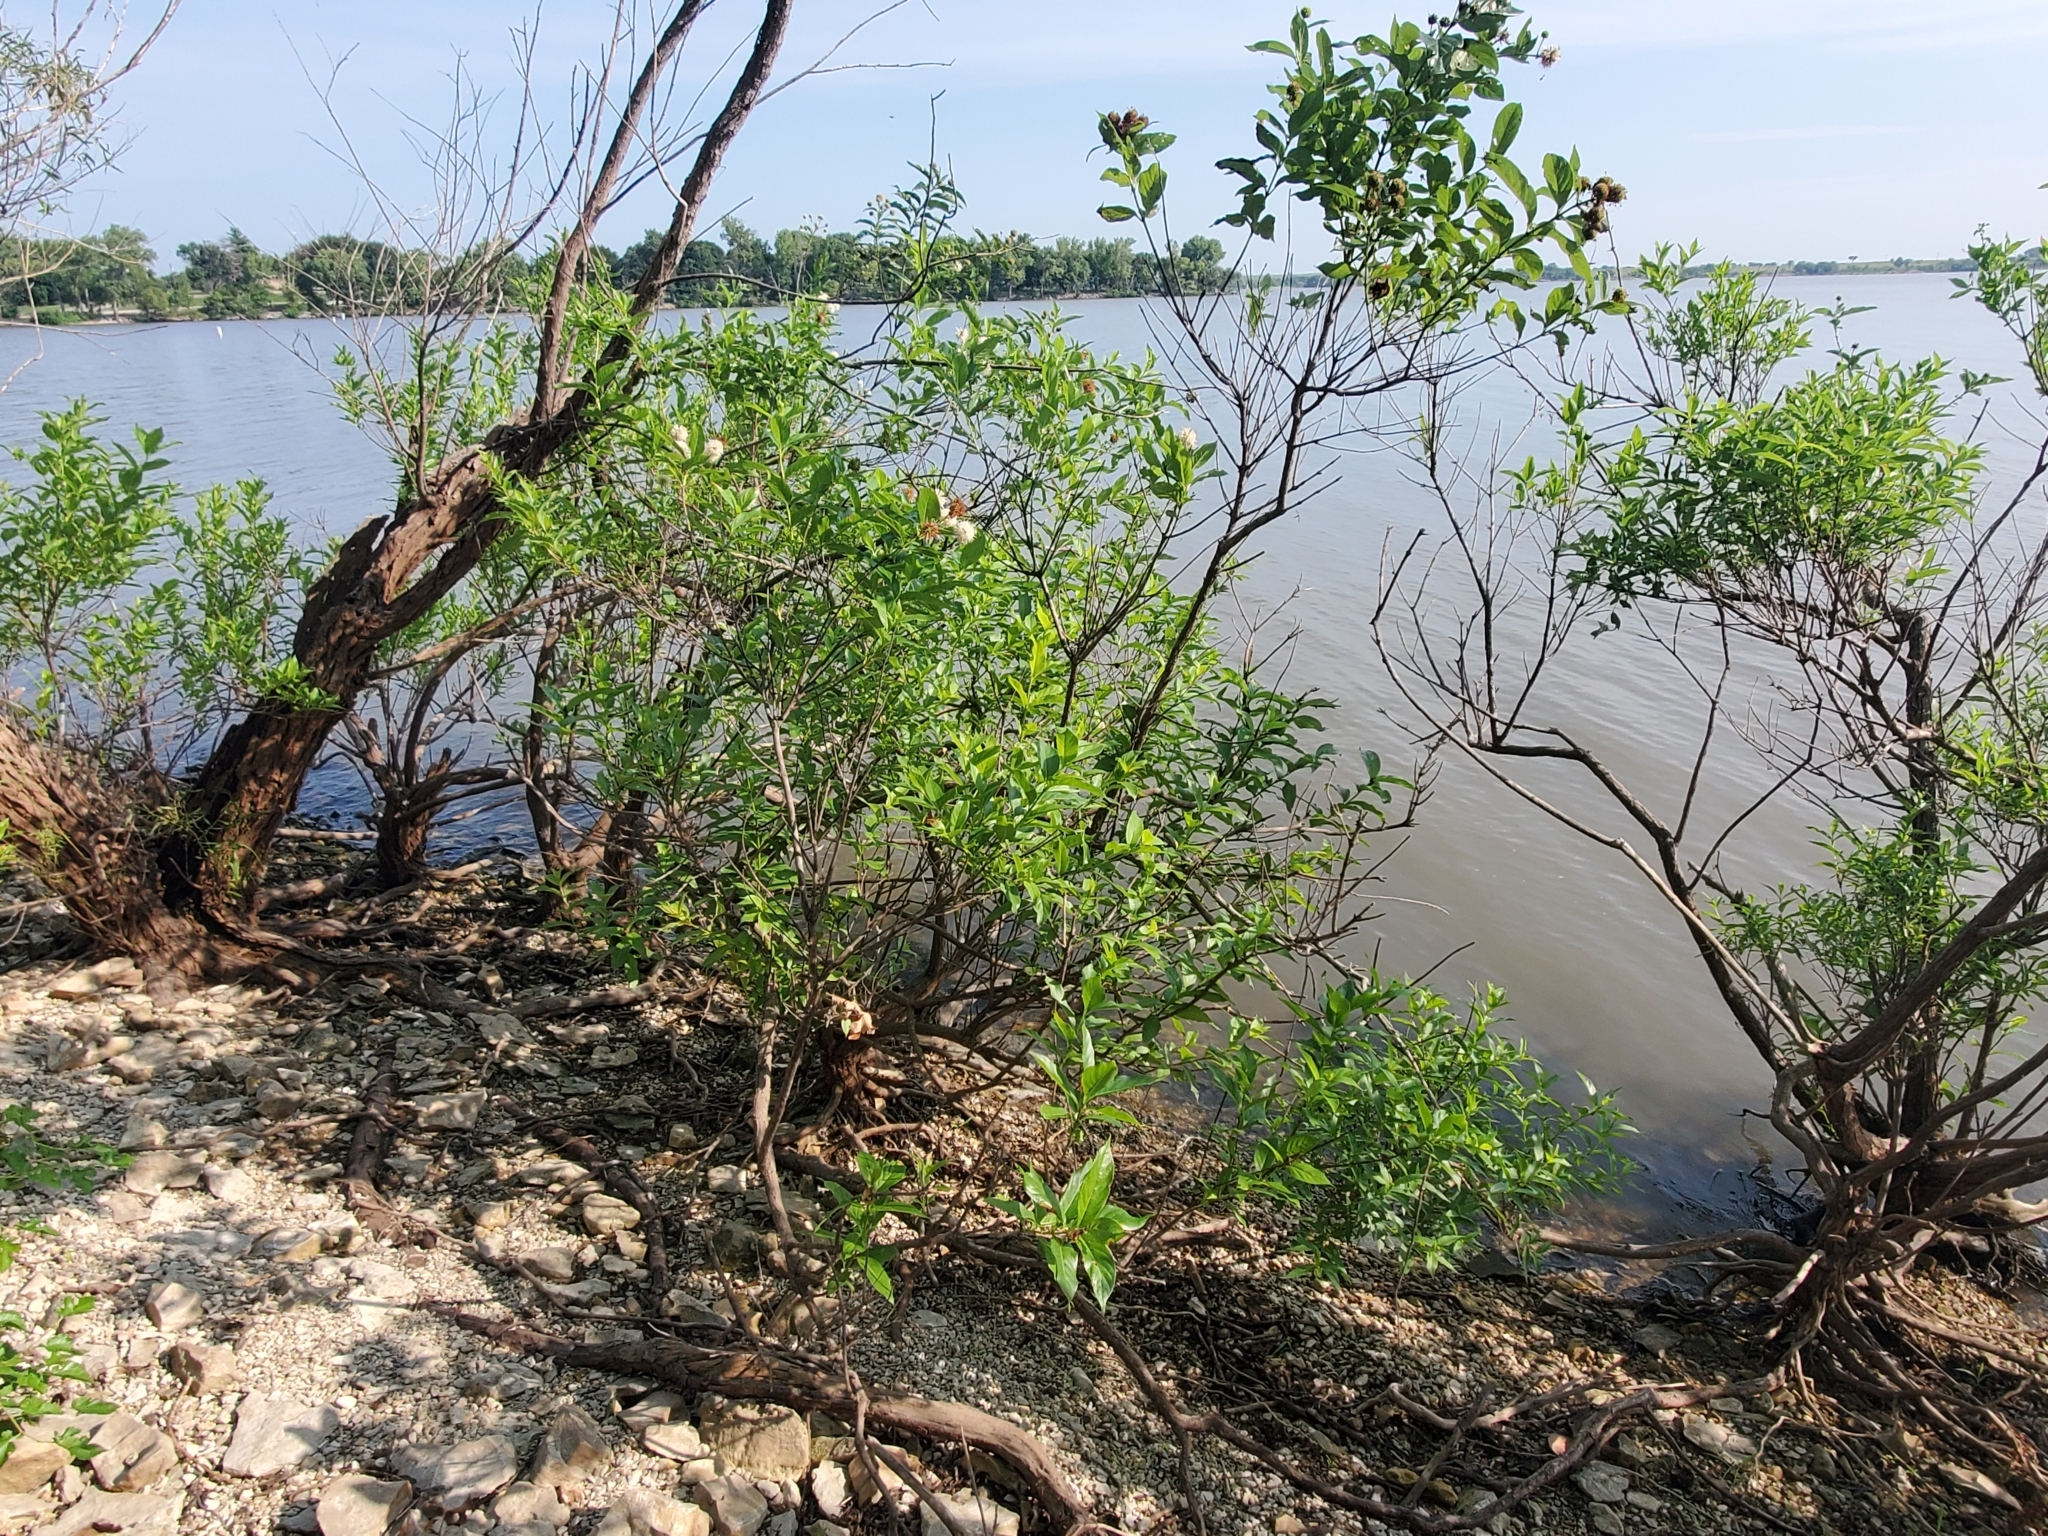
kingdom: Plantae
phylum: Tracheophyta
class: Magnoliopsida
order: Gentianales
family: Rubiaceae
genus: Cephalanthus
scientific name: Cephalanthus occidentalis
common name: Button-willow
